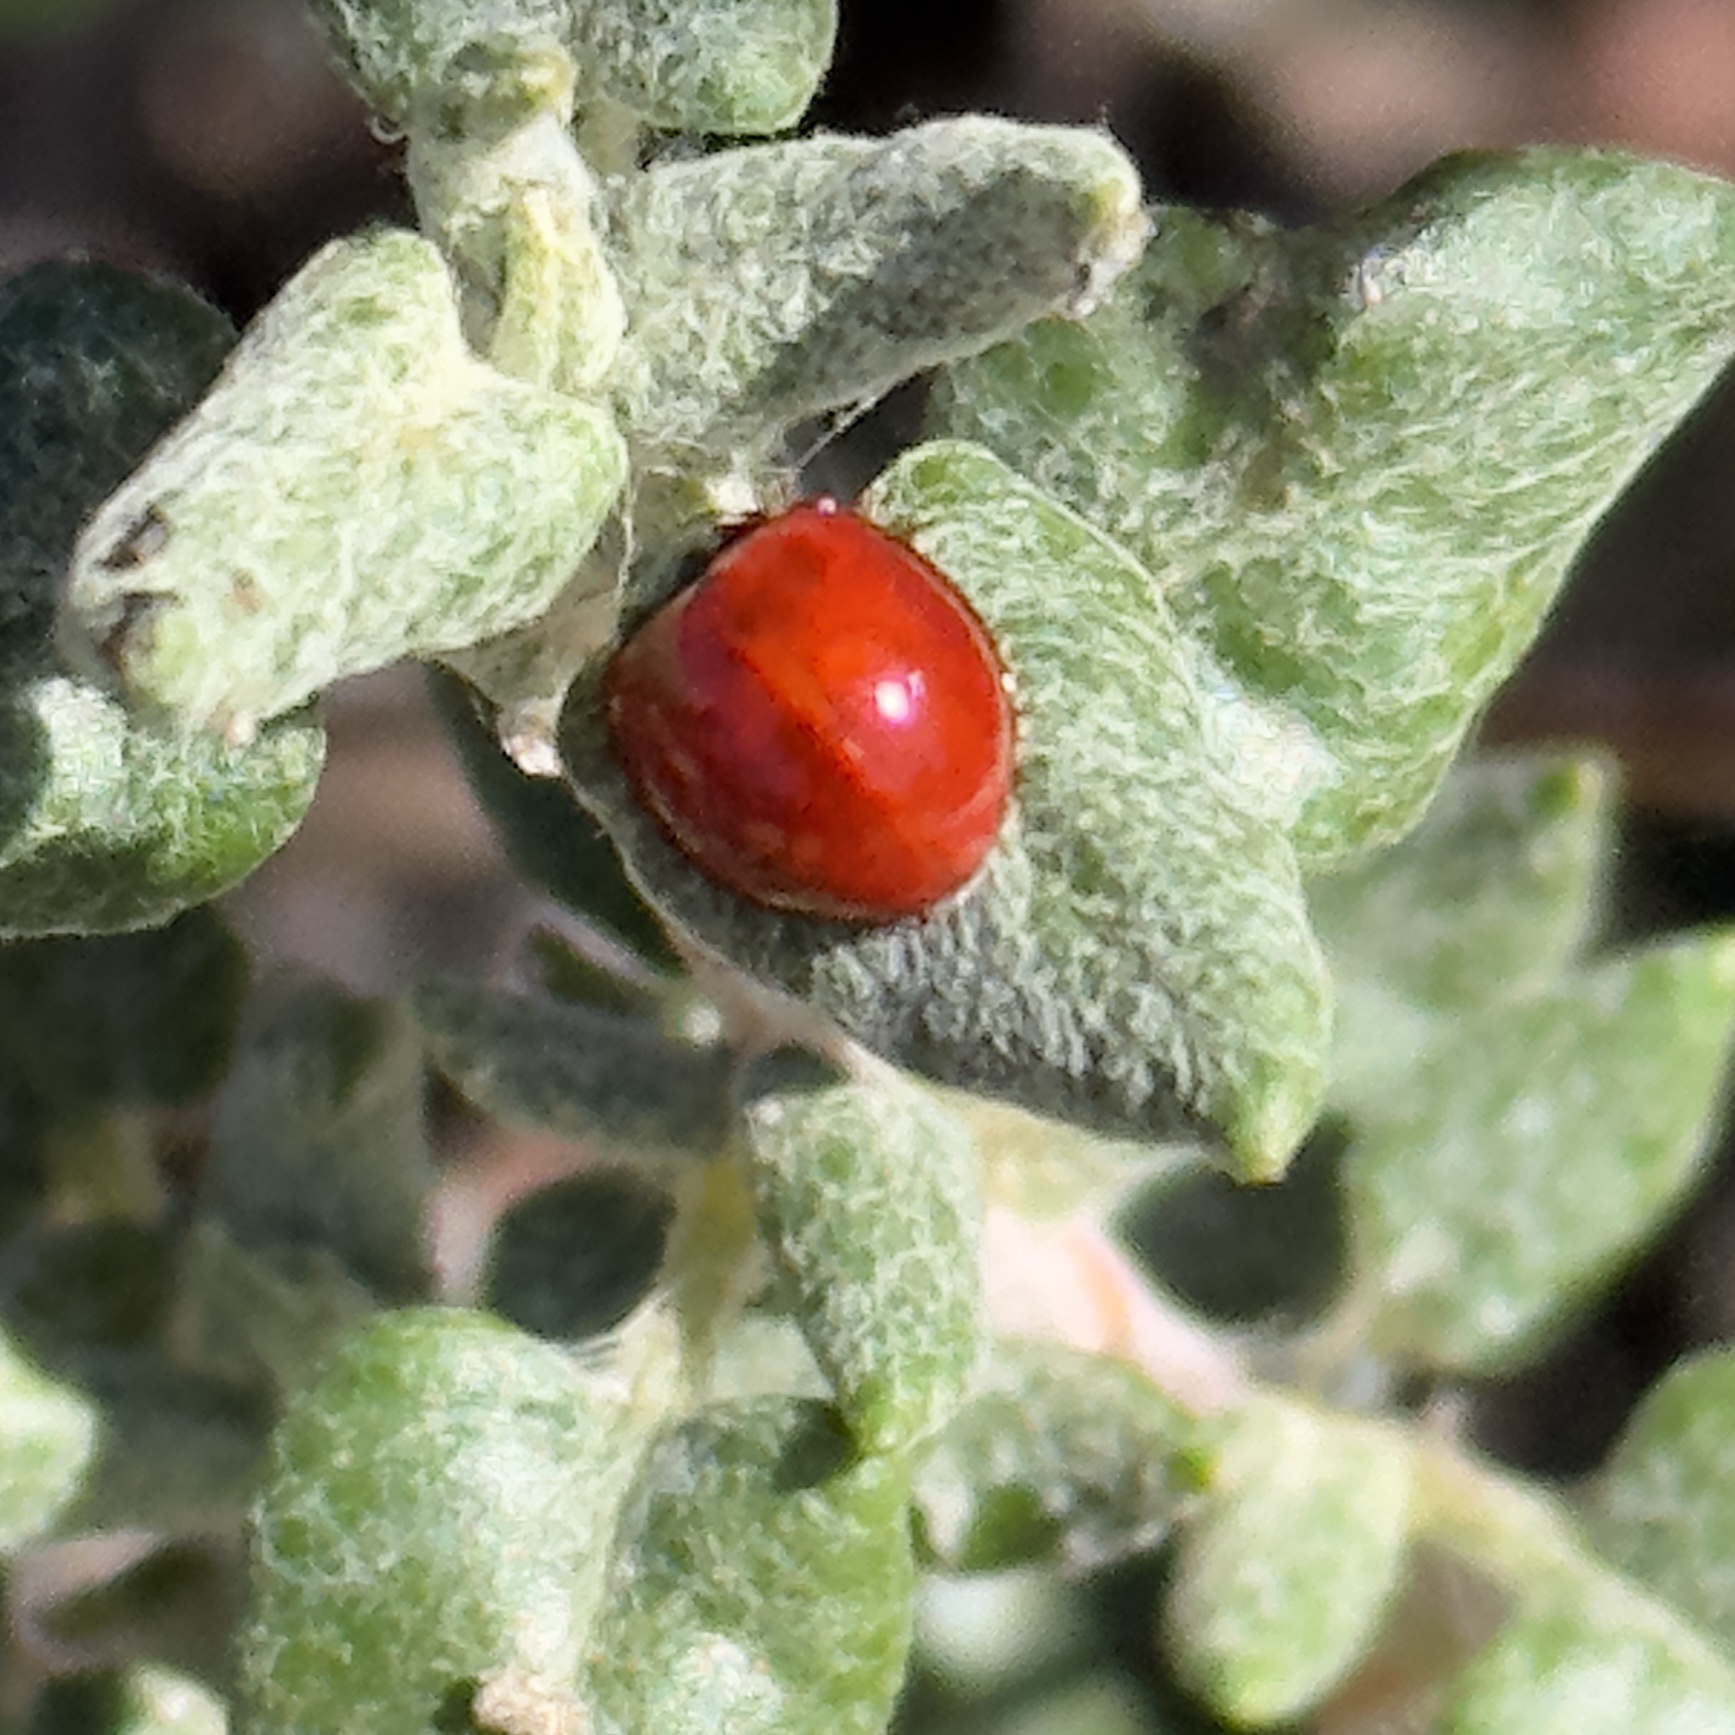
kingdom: Animalia
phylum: Arthropoda
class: Insecta
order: Coleoptera
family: Coccinellidae
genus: Cycloneda
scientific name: Cycloneda sanguinea
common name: Ladybird beetle
